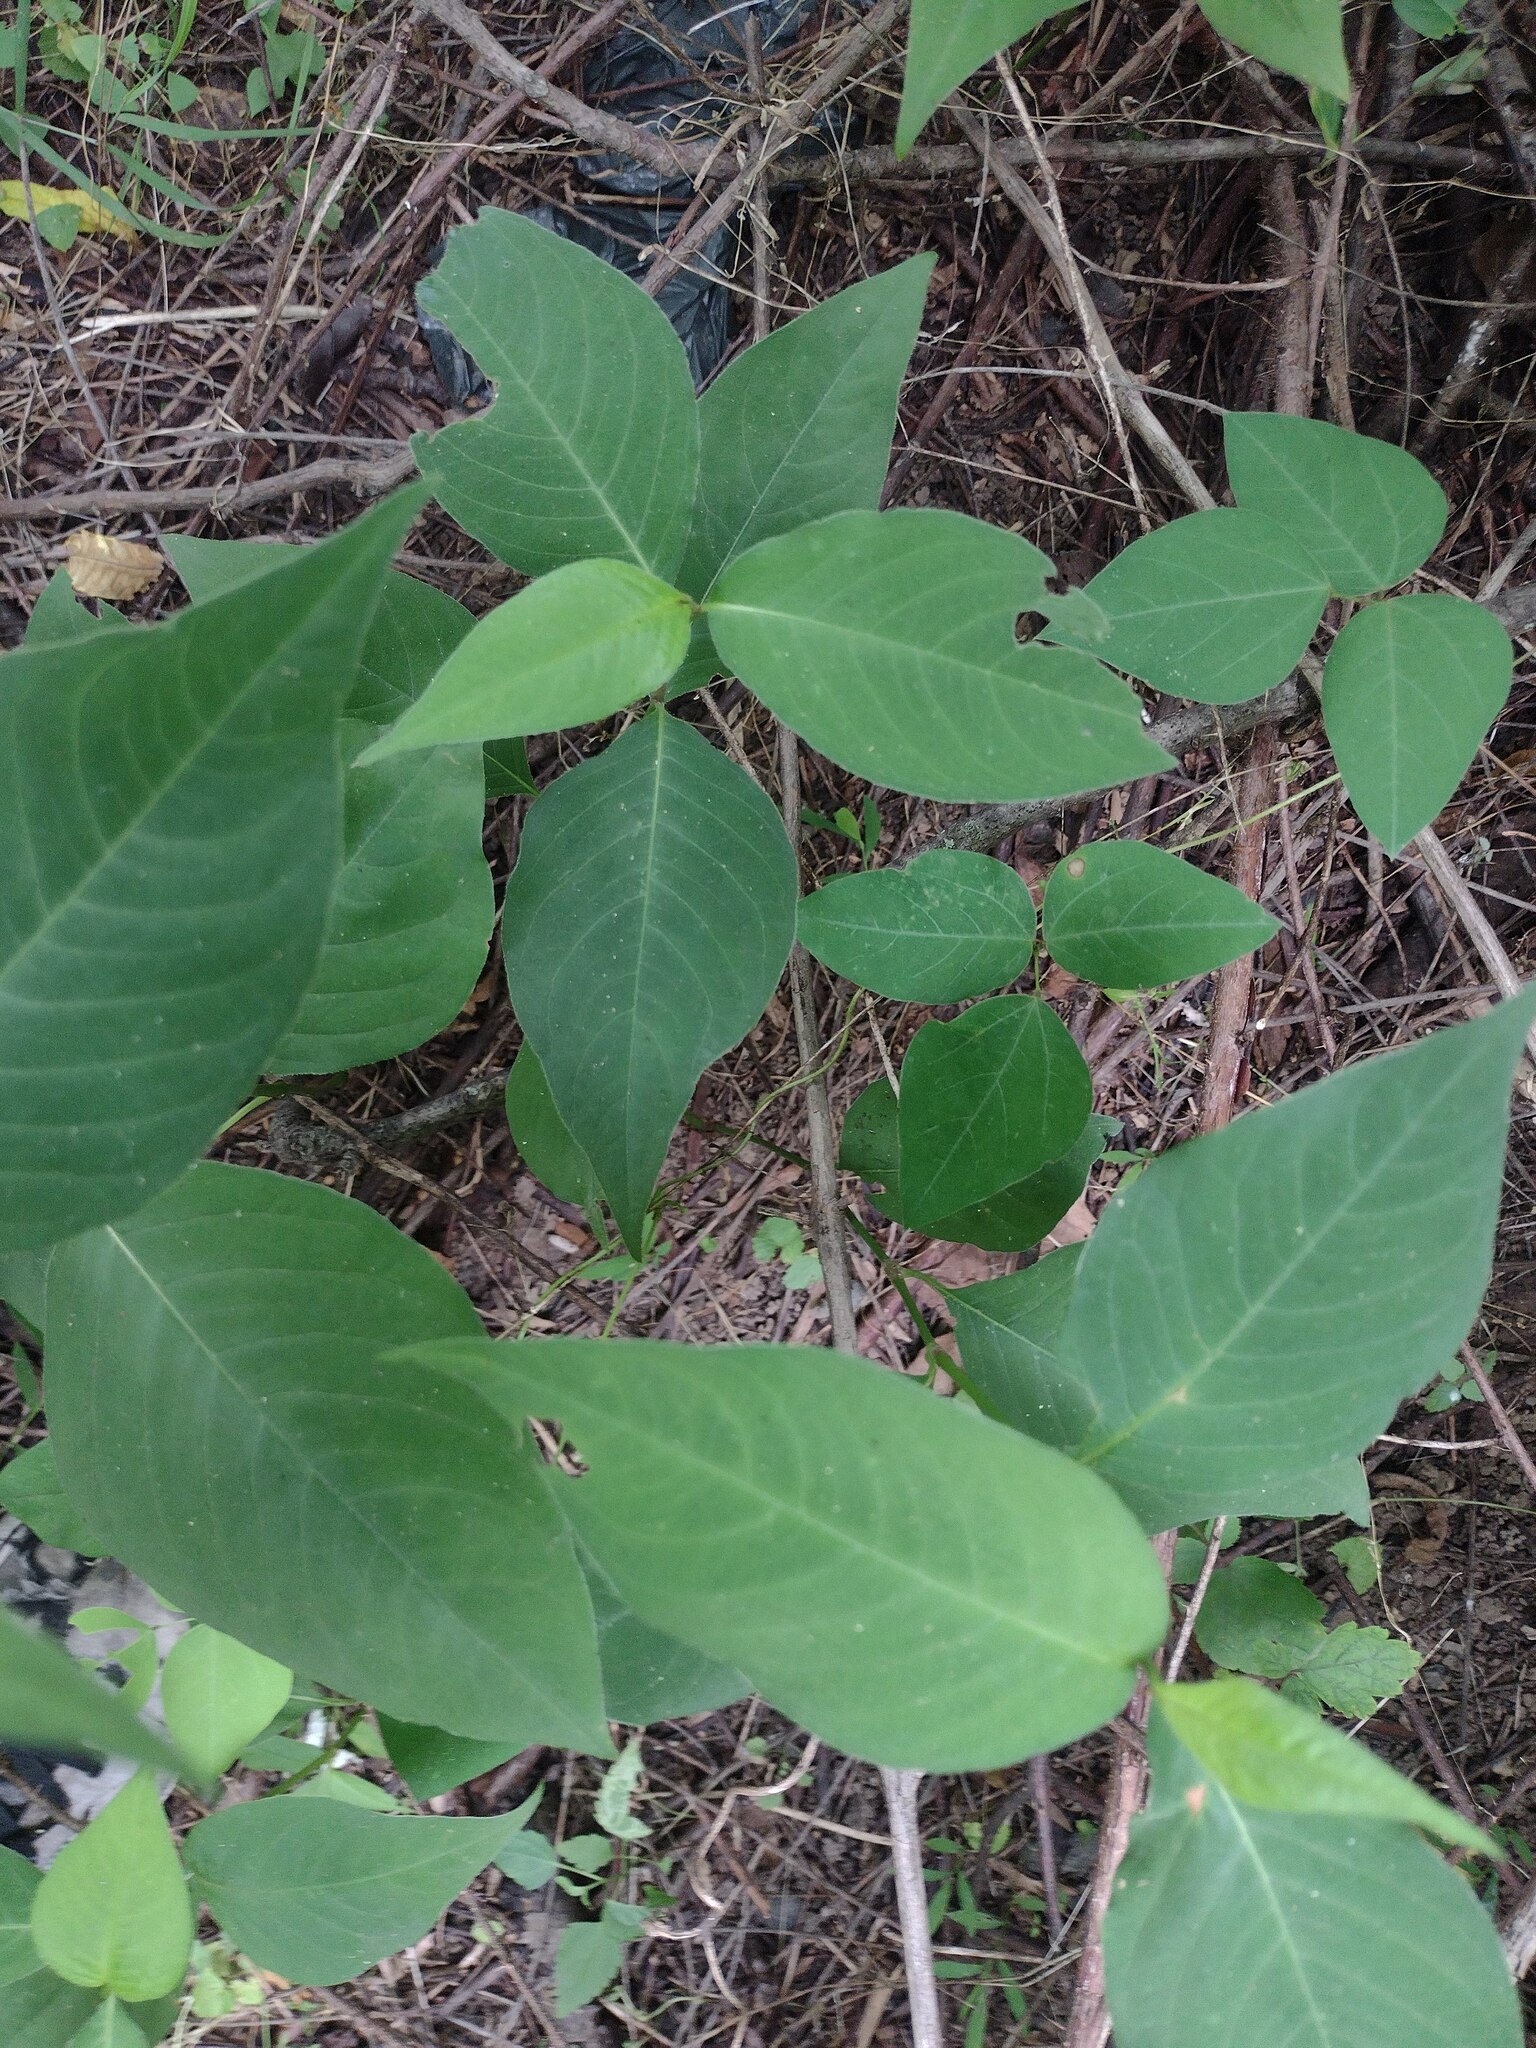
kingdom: Plantae
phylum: Tracheophyta
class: Magnoliopsida
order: Caryophyllales
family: Polygonaceae
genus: Persicaria
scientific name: Persicaria virginiana
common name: Jumpseed
